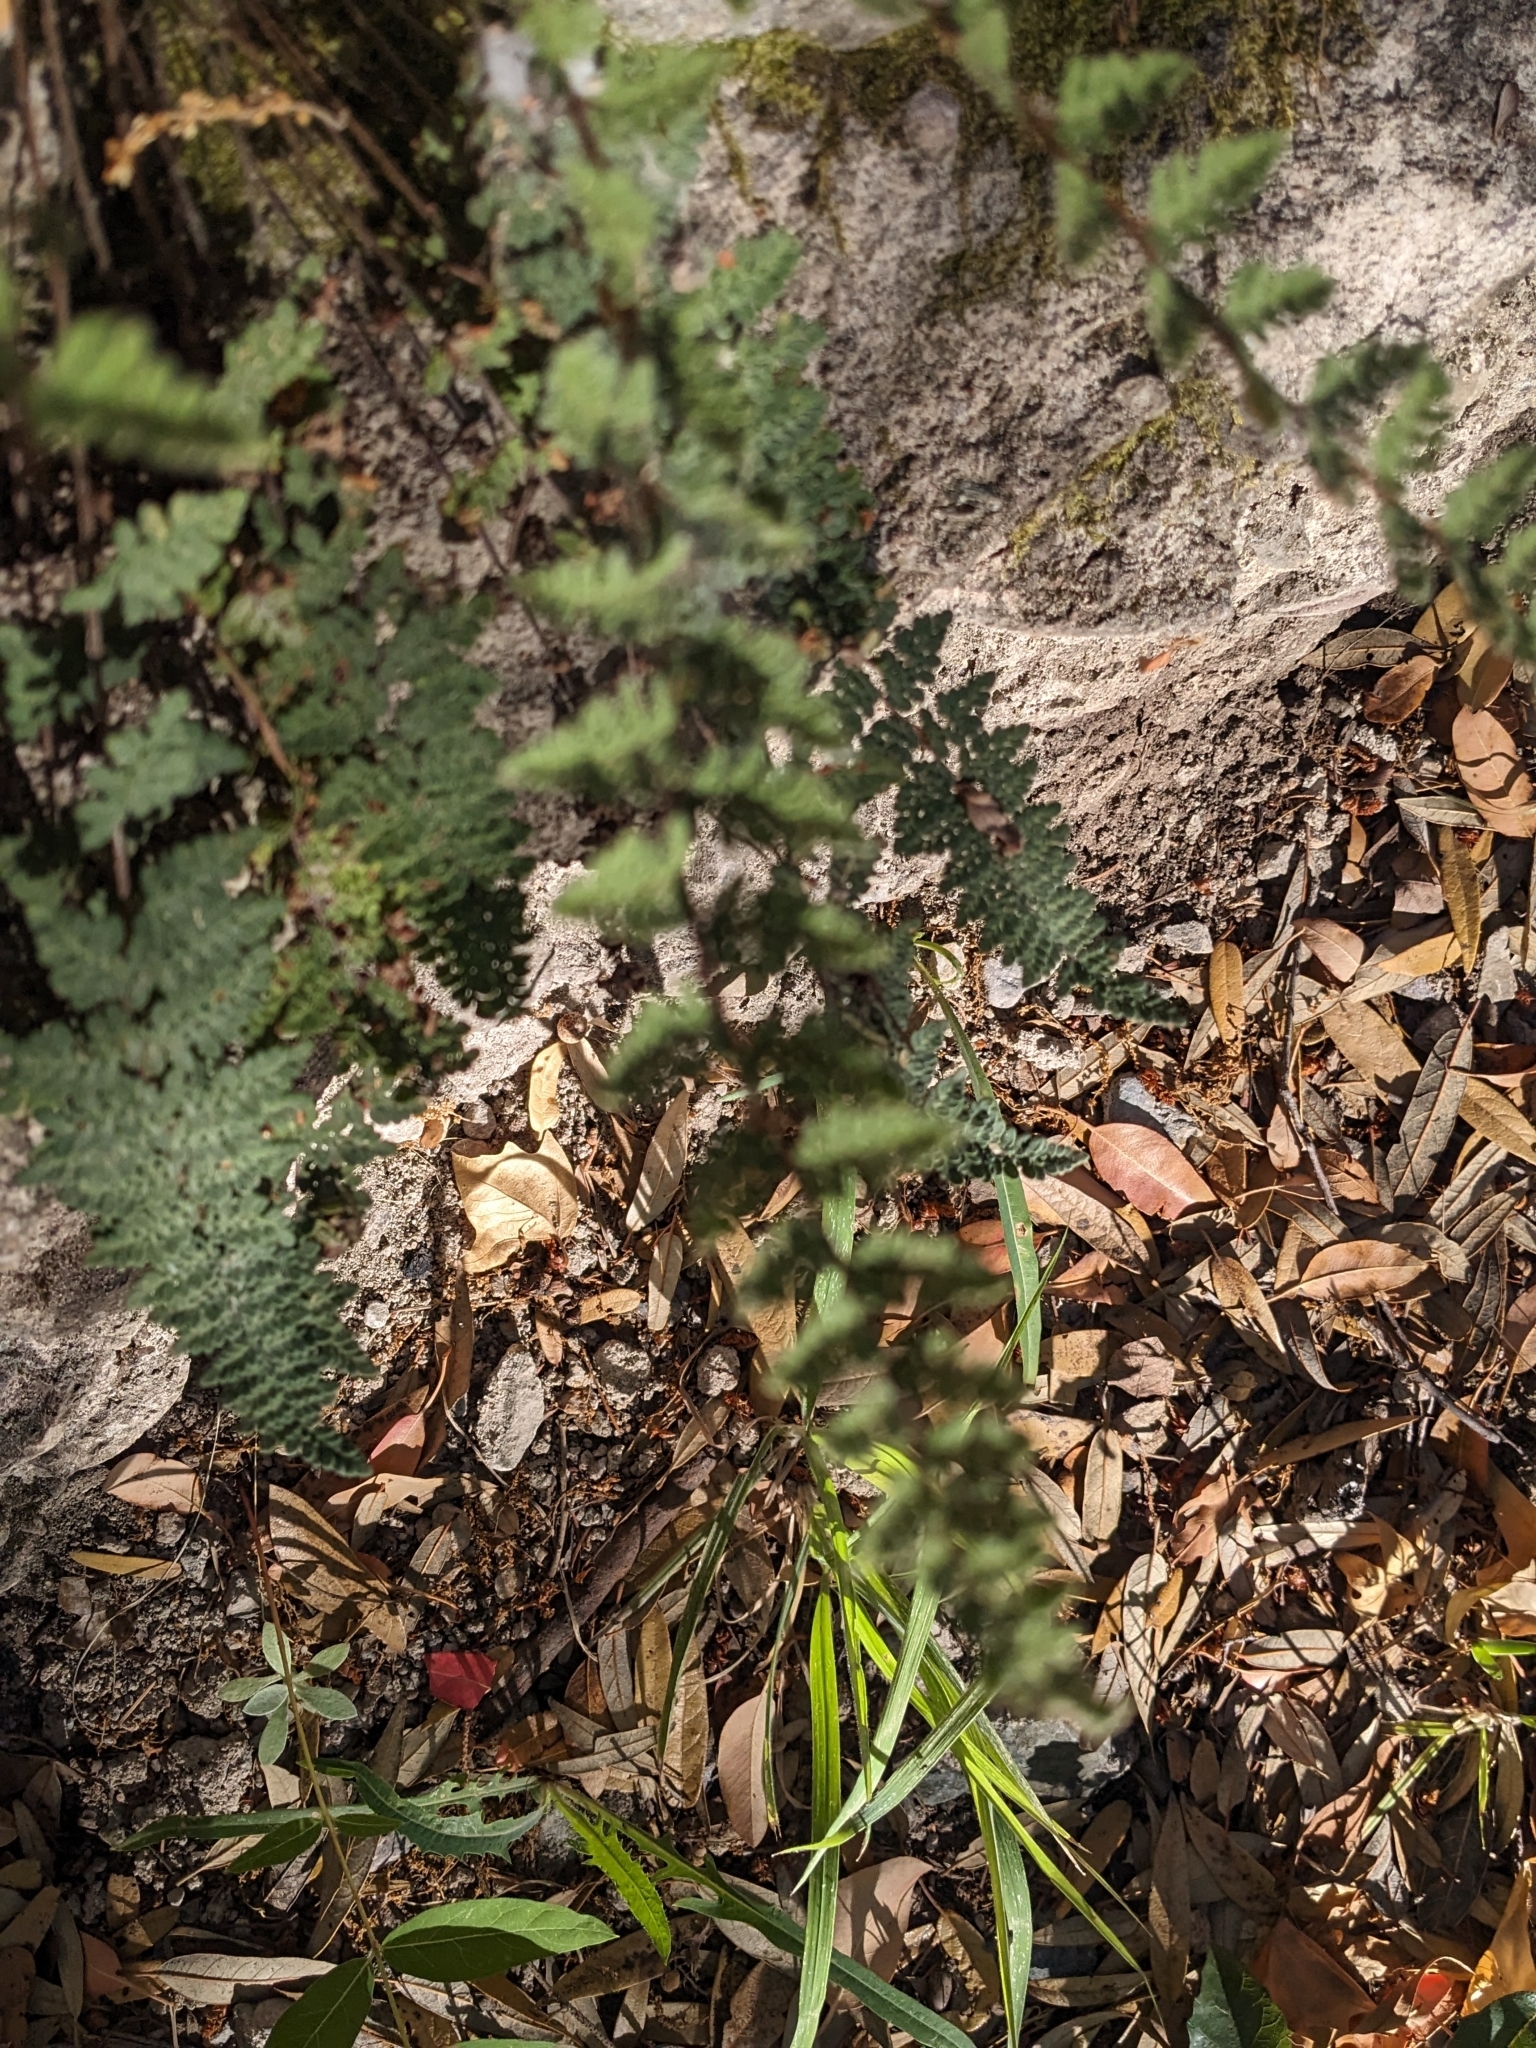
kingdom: Plantae
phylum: Tracheophyta
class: Polypodiopsida
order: Polypodiales
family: Pteridaceae
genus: Myriopteris
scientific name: Myriopteris tomentosa
